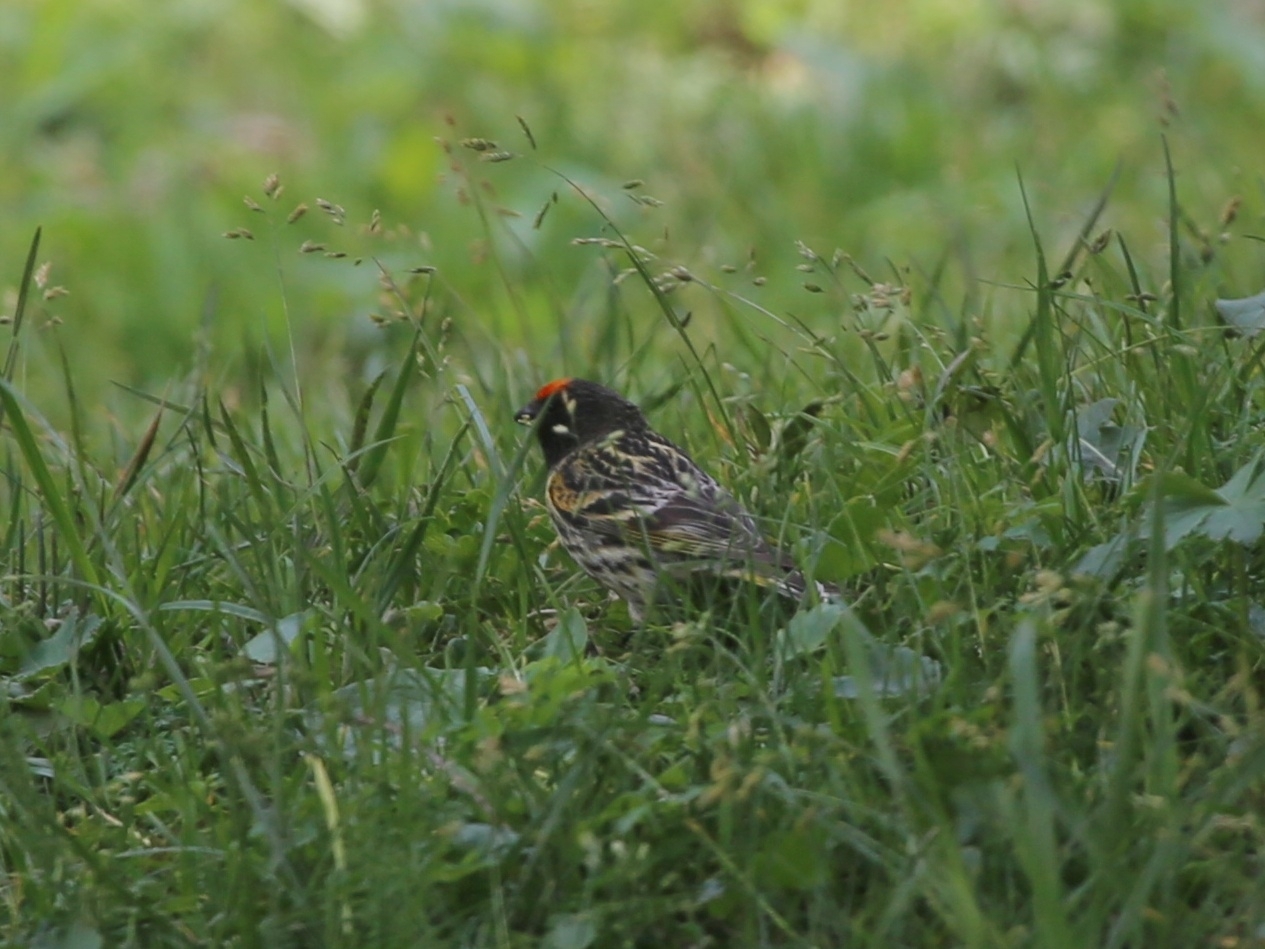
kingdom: Animalia
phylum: Chordata
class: Aves
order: Passeriformes
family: Fringillidae
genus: Serinus
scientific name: Serinus pusillus
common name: Red-fronted serin
